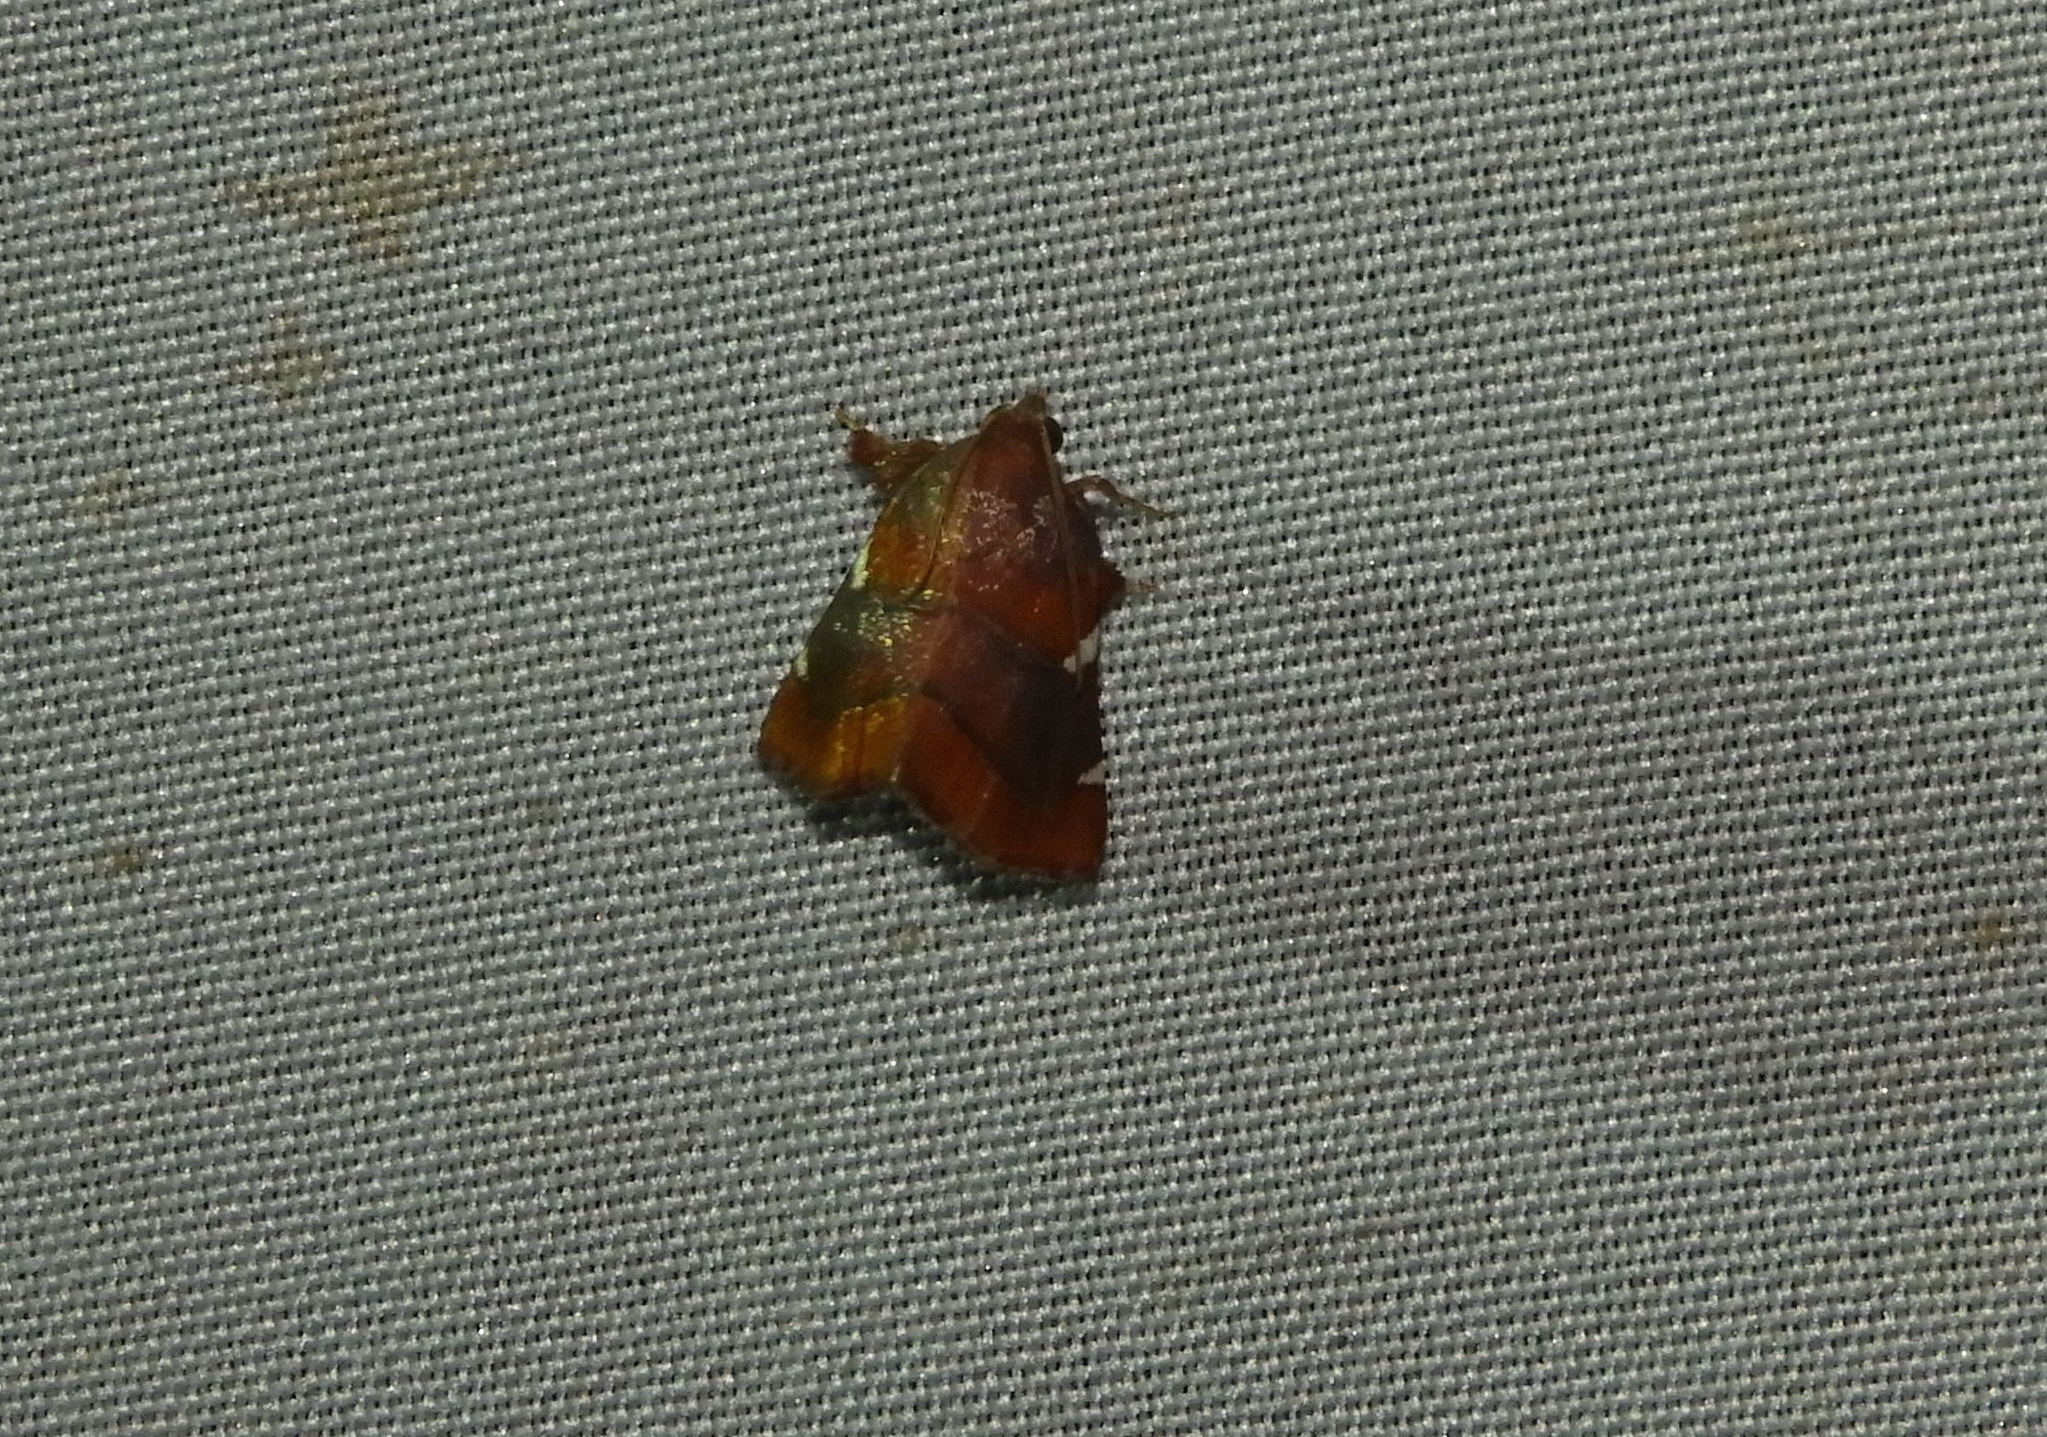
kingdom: Animalia
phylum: Arthropoda
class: Insecta
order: Lepidoptera
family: Pyralidae
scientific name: Pyralidae
